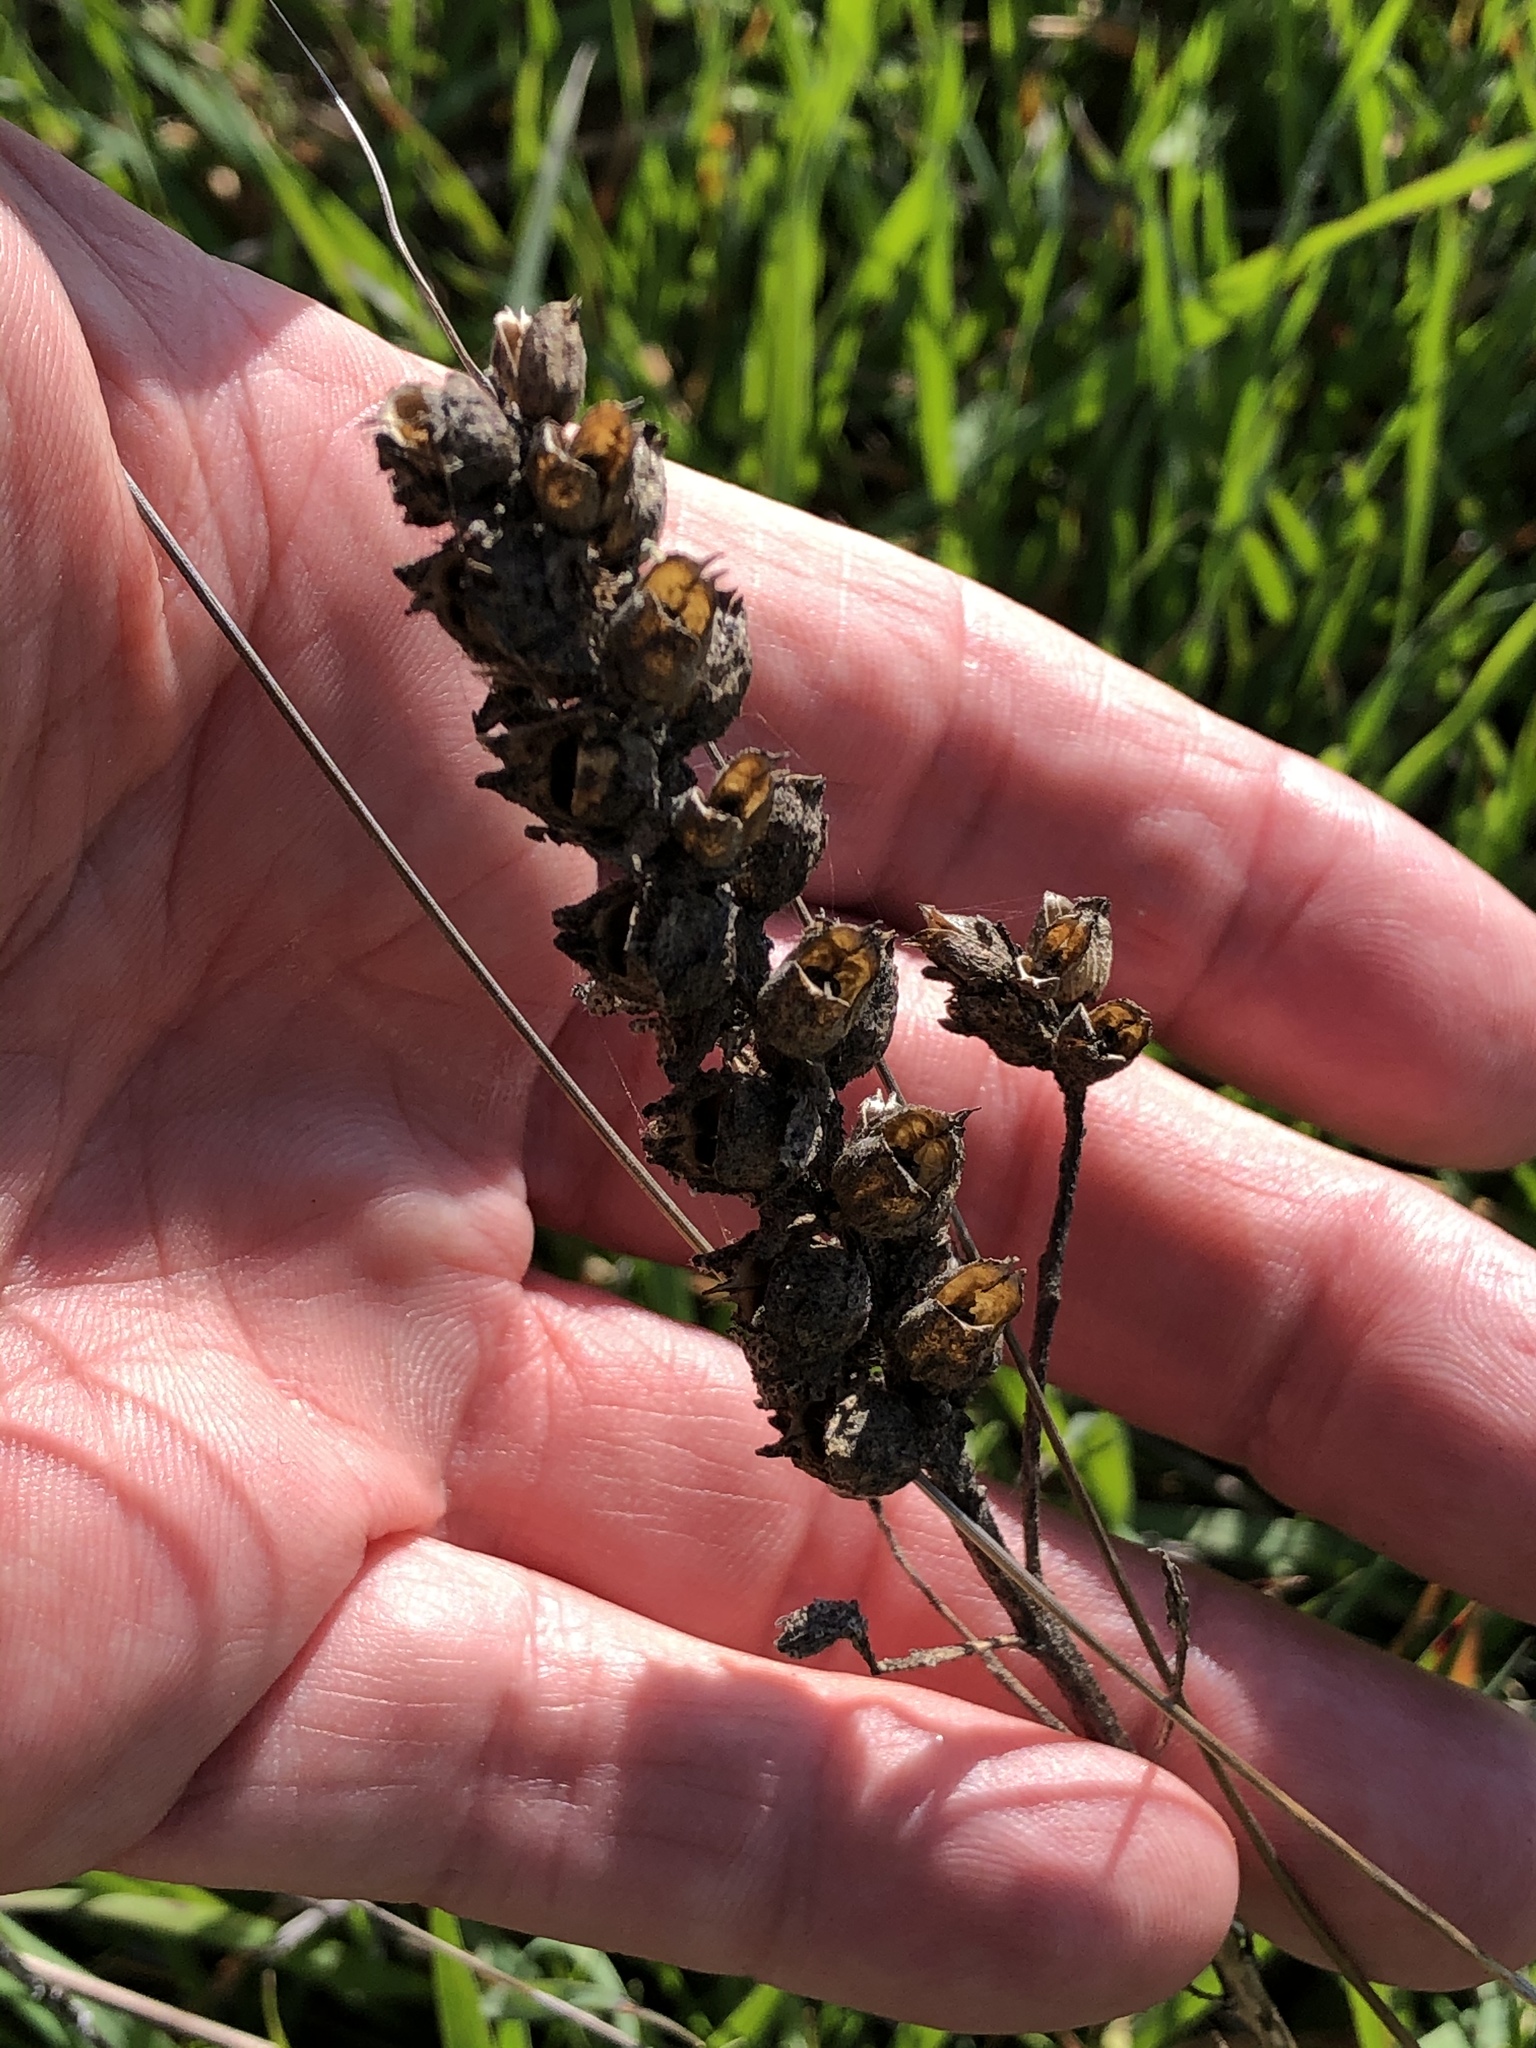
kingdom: Plantae
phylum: Tracheophyta
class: Magnoliopsida
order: Lamiales
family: Orobanchaceae
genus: Bellardia
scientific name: Bellardia trixago
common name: Mediterranean lineseed
